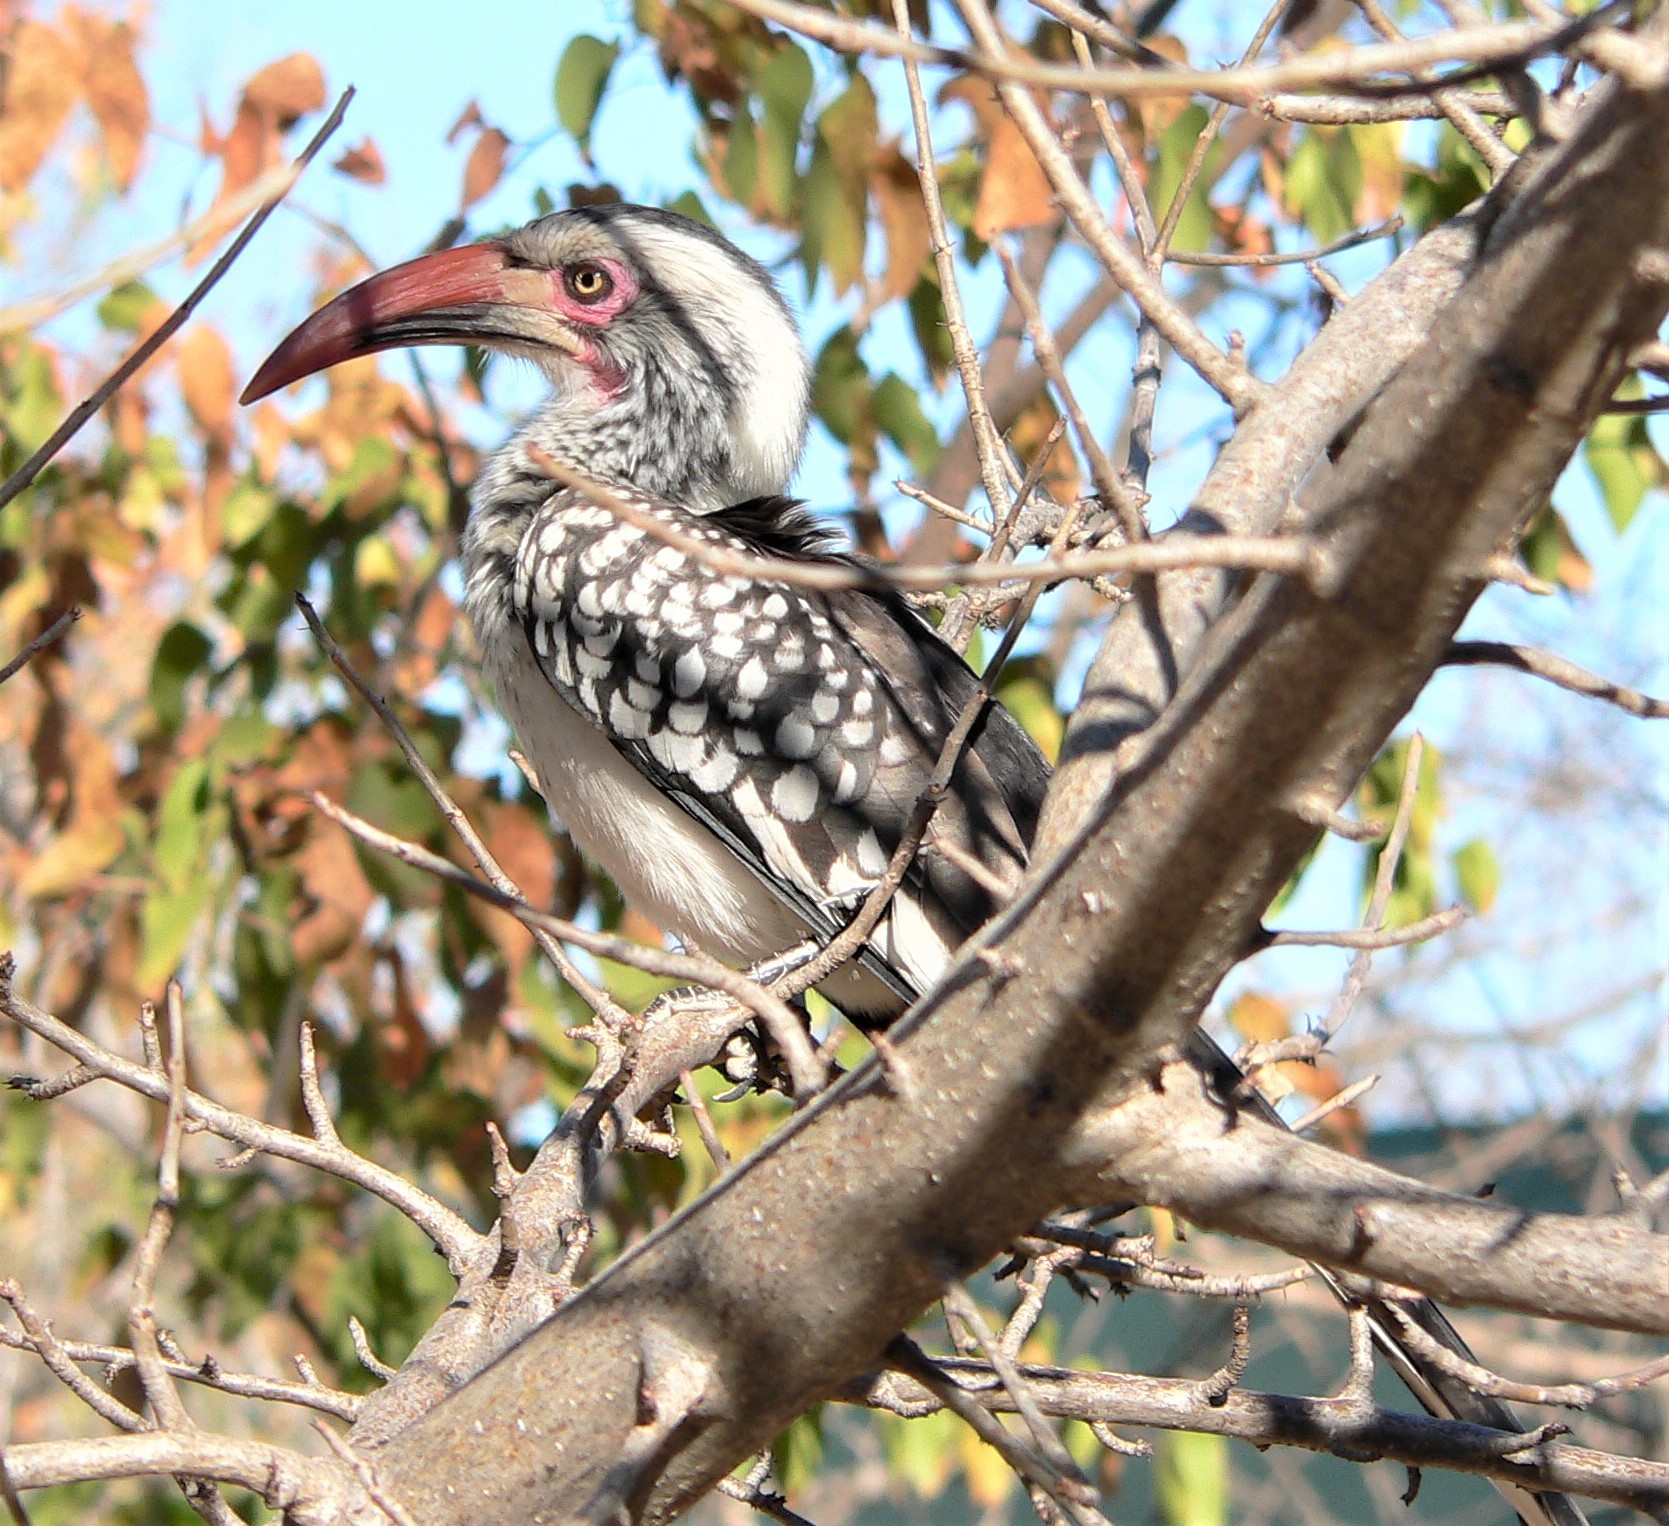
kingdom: Animalia
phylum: Chordata
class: Aves
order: Bucerotiformes
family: Bucerotidae
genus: Tockus
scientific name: Tockus rufirostris
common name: Southern red-billed hornbill
